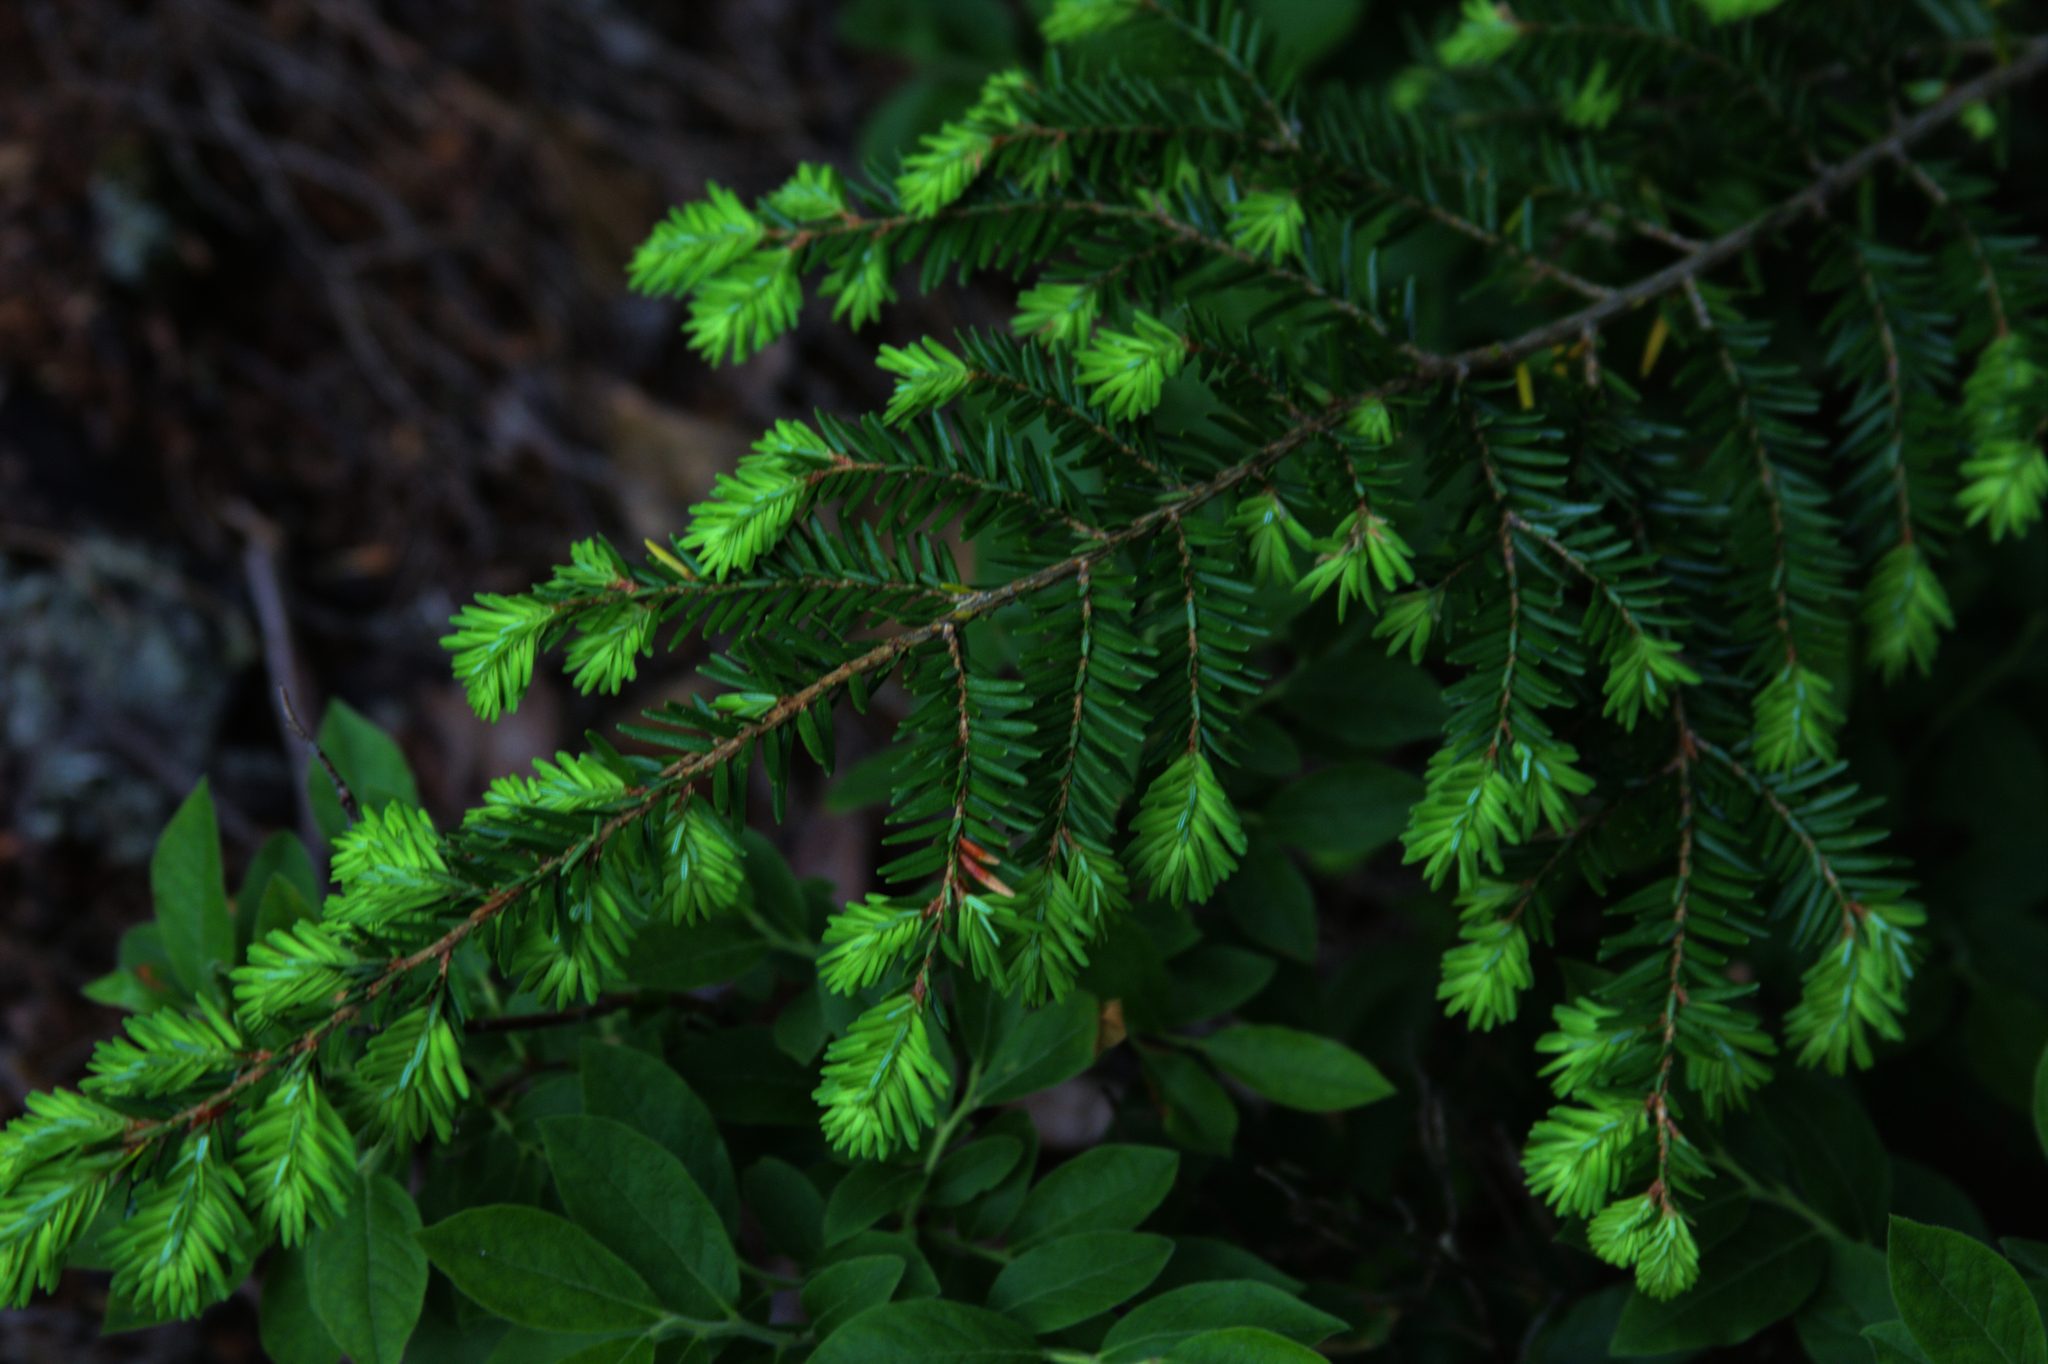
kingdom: Plantae
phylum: Tracheophyta
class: Pinopsida
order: Pinales
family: Pinaceae
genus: Tsuga
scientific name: Tsuga canadensis
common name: Eastern hemlock
